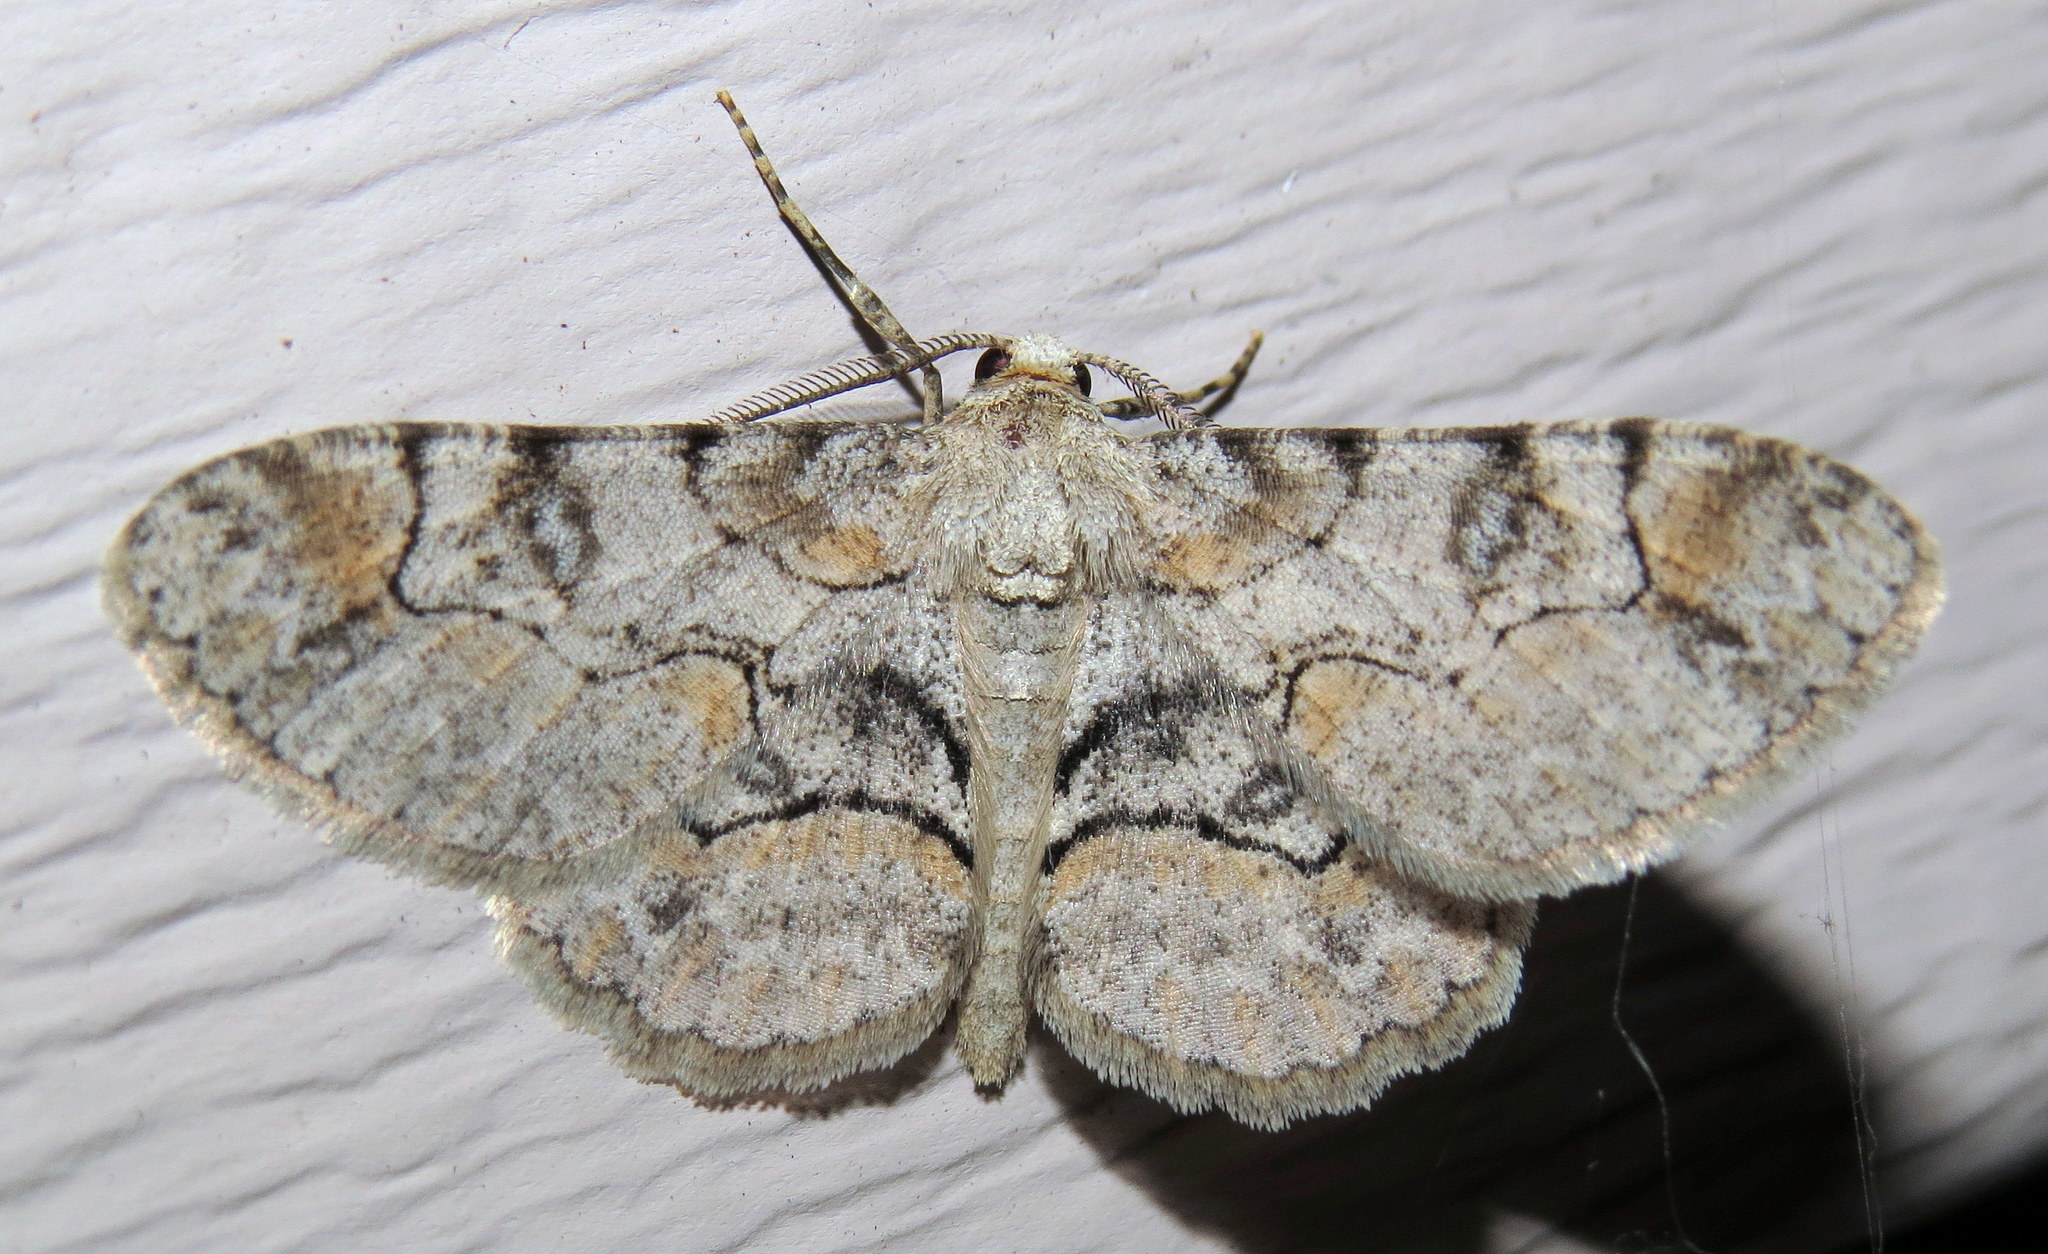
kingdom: Animalia
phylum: Arthropoda
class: Insecta
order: Lepidoptera
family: Geometridae
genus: Iridopsis
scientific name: Iridopsis larvaria
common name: Bent-line gray
